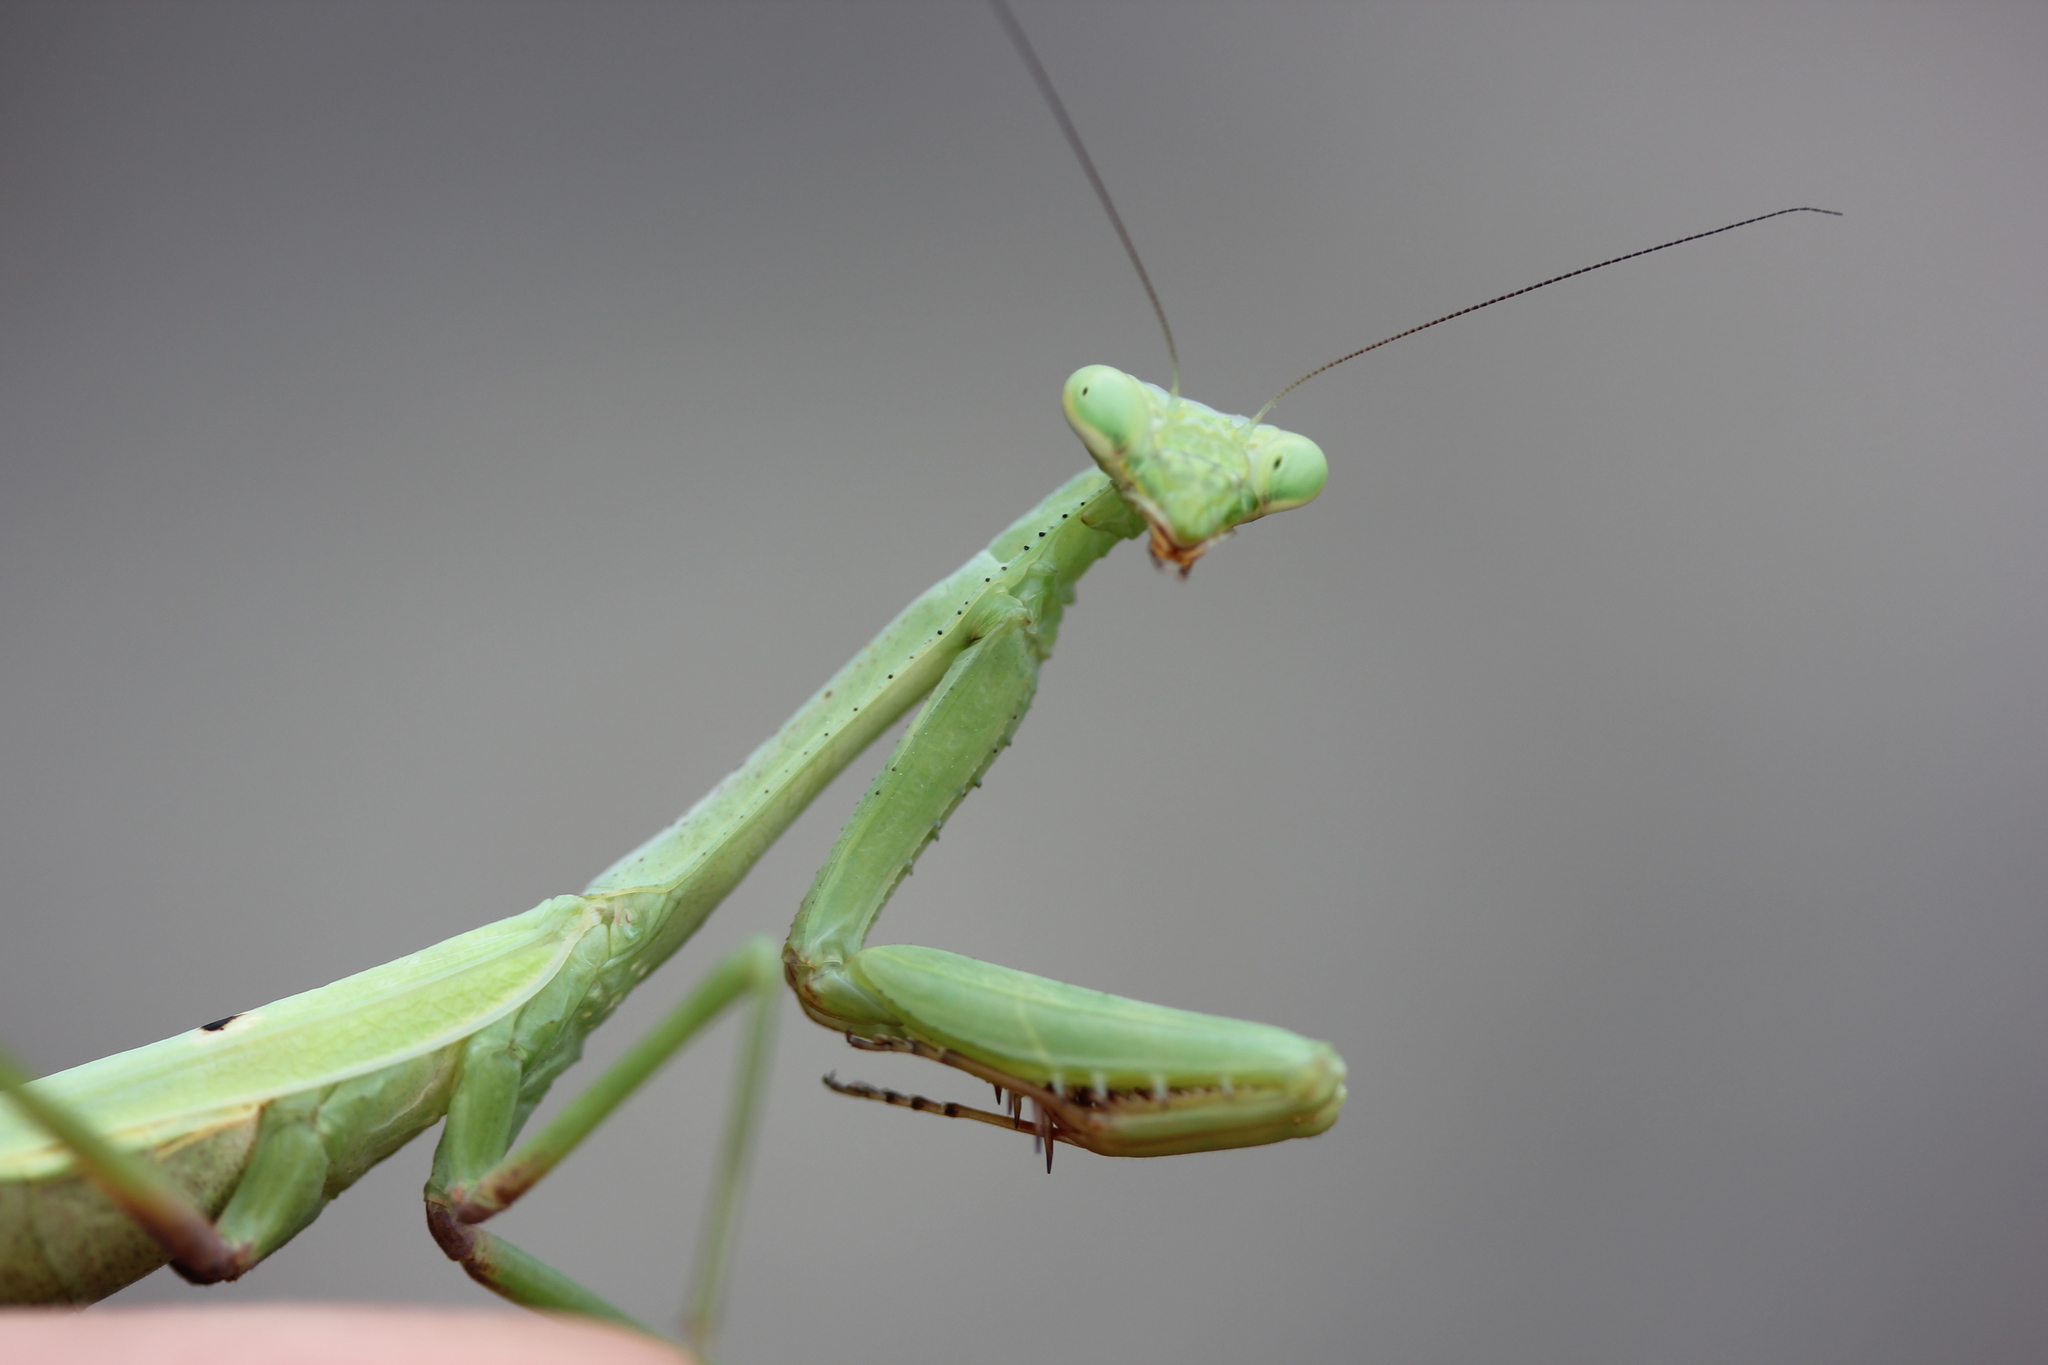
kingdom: Animalia
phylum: Arthropoda
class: Insecta
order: Mantodea
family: Mantidae
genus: Stagmomantis
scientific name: Stagmomantis carolina
